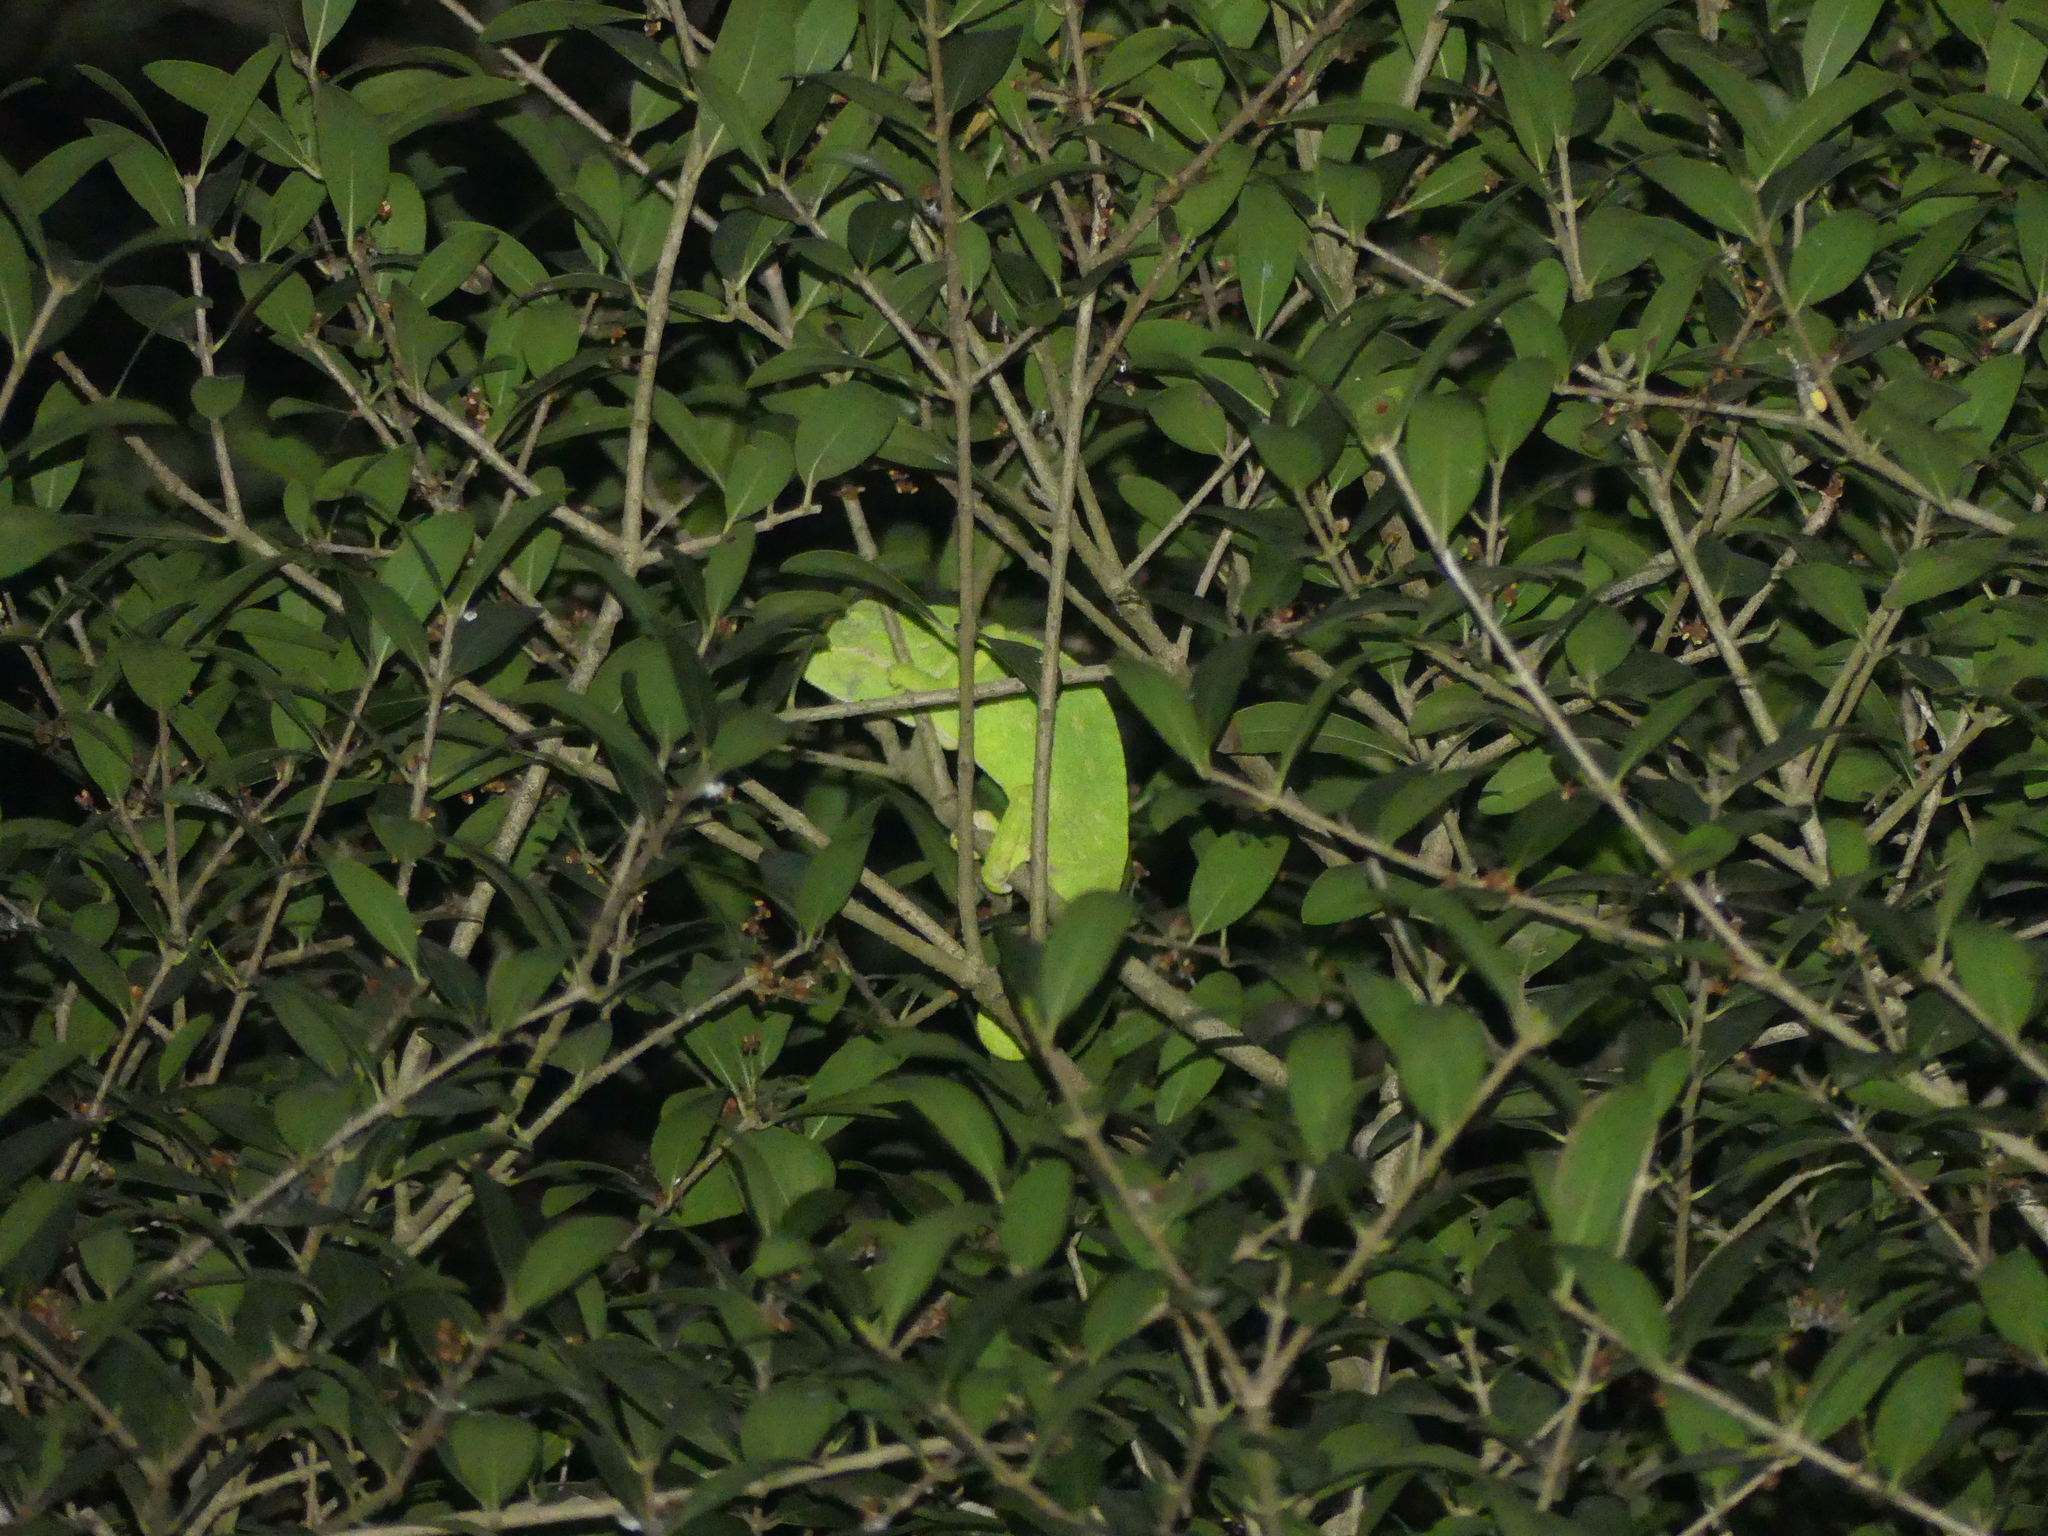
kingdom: Animalia
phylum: Chordata
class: Squamata
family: Chamaeleonidae
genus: Chamaeleo
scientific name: Chamaeleo chamaeleon
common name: Mediterranean chameleon
